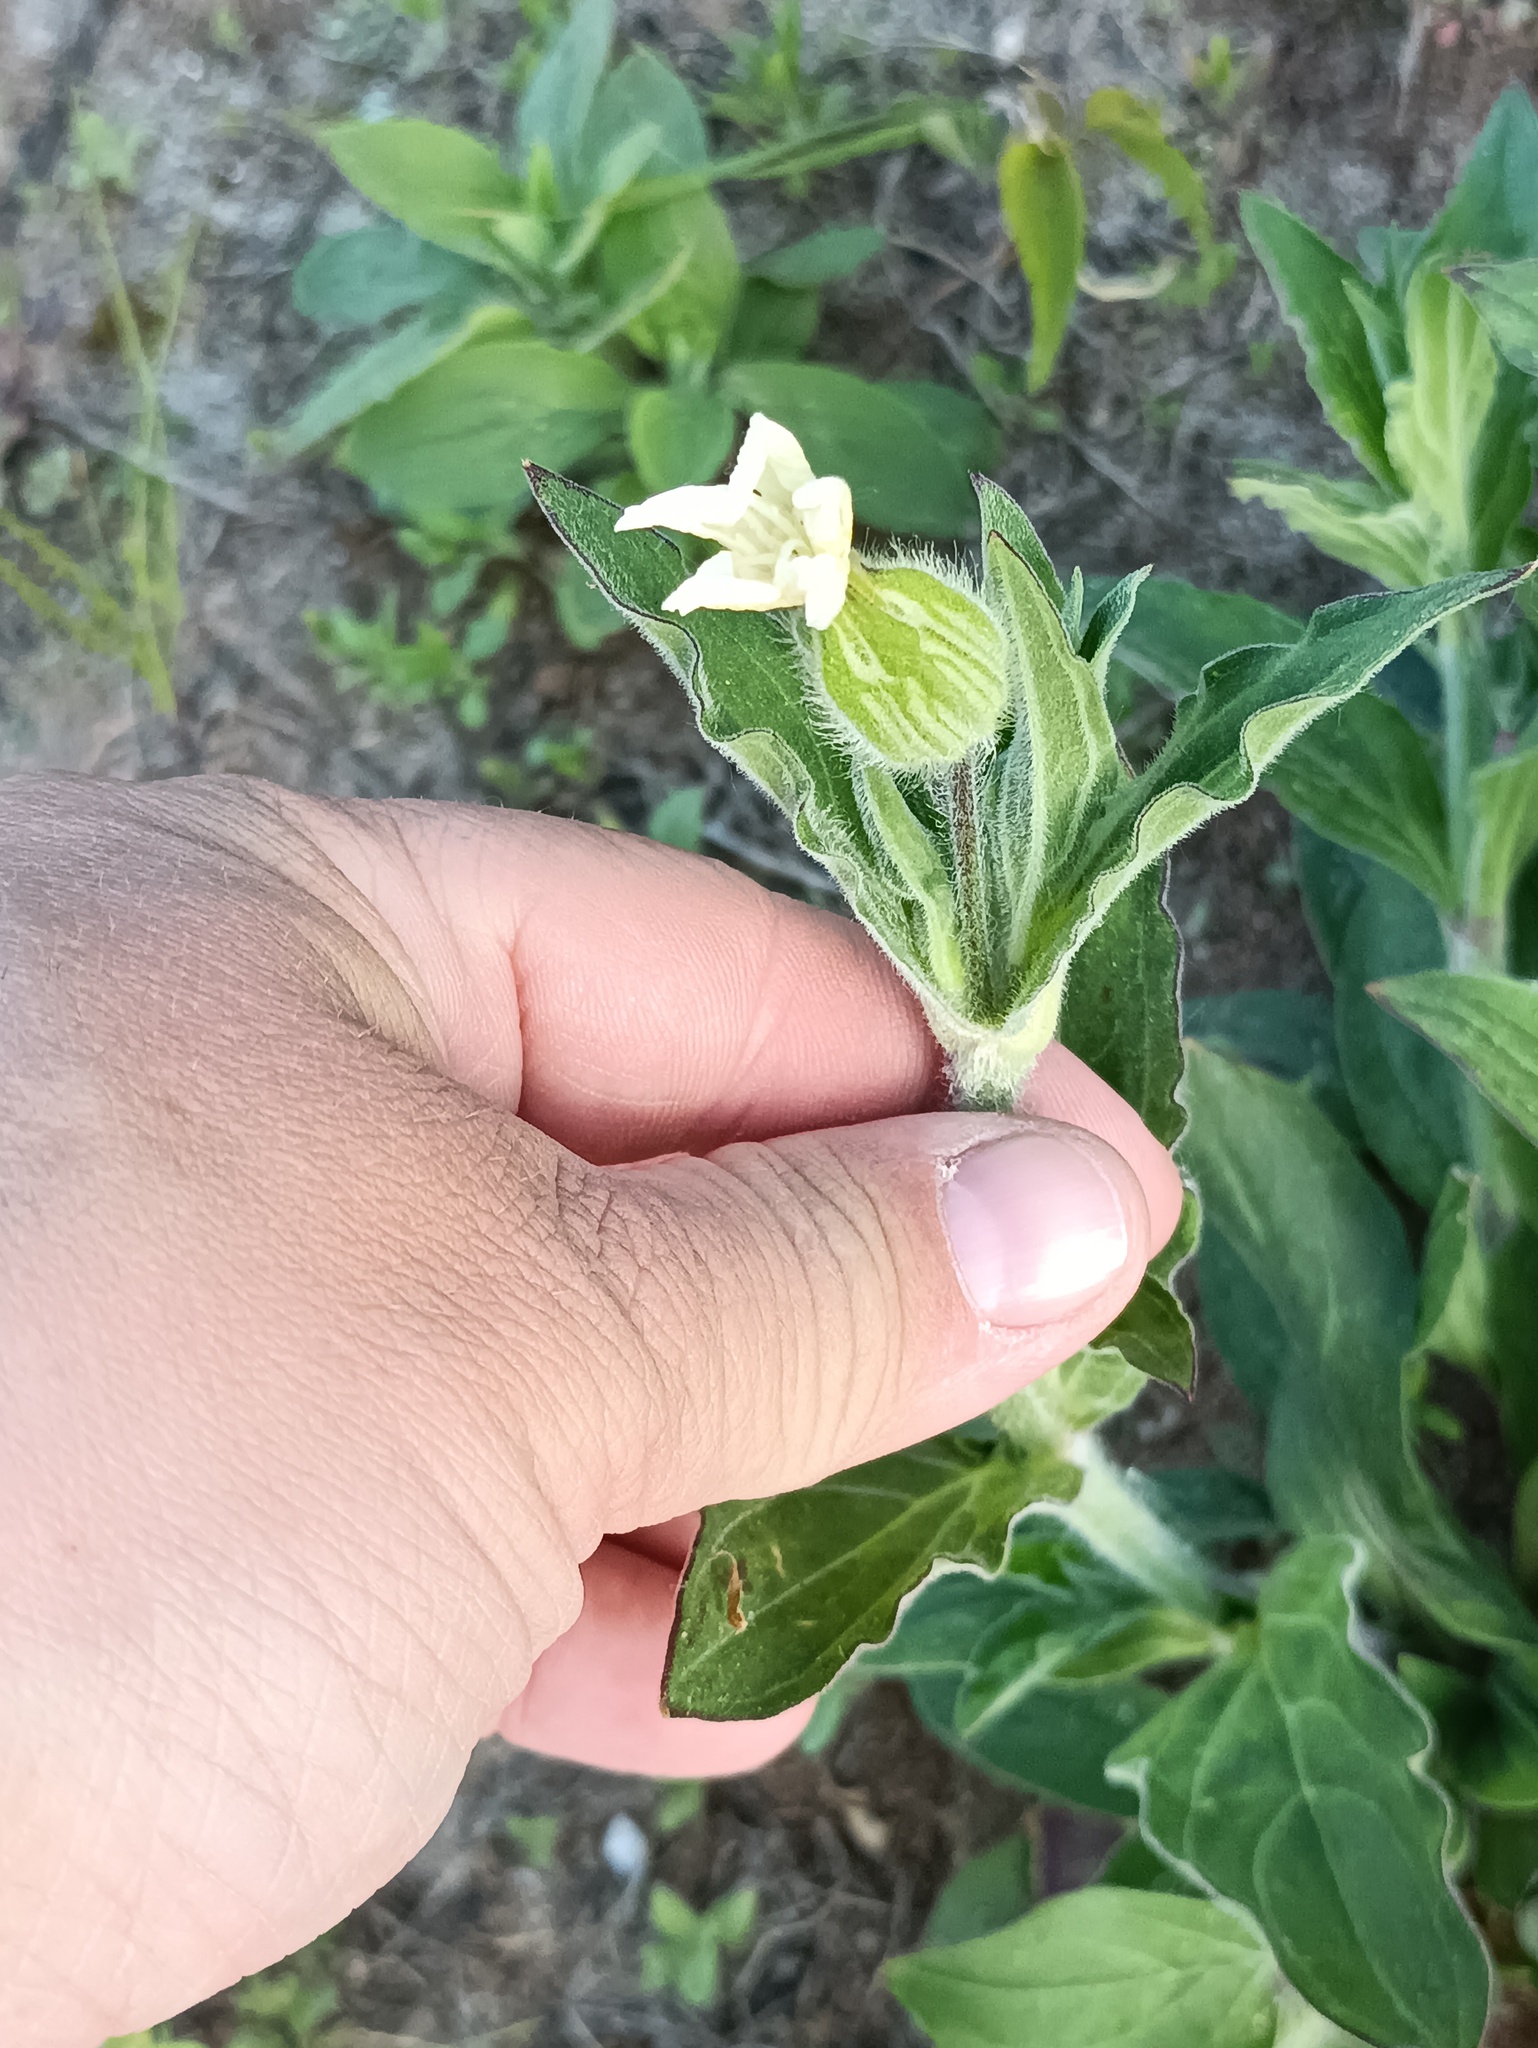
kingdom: Plantae
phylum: Tracheophyta
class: Magnoliopsida
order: Caryophyllales
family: Caryophyllaceae
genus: Silene
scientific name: Silene latifolia
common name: White campion
